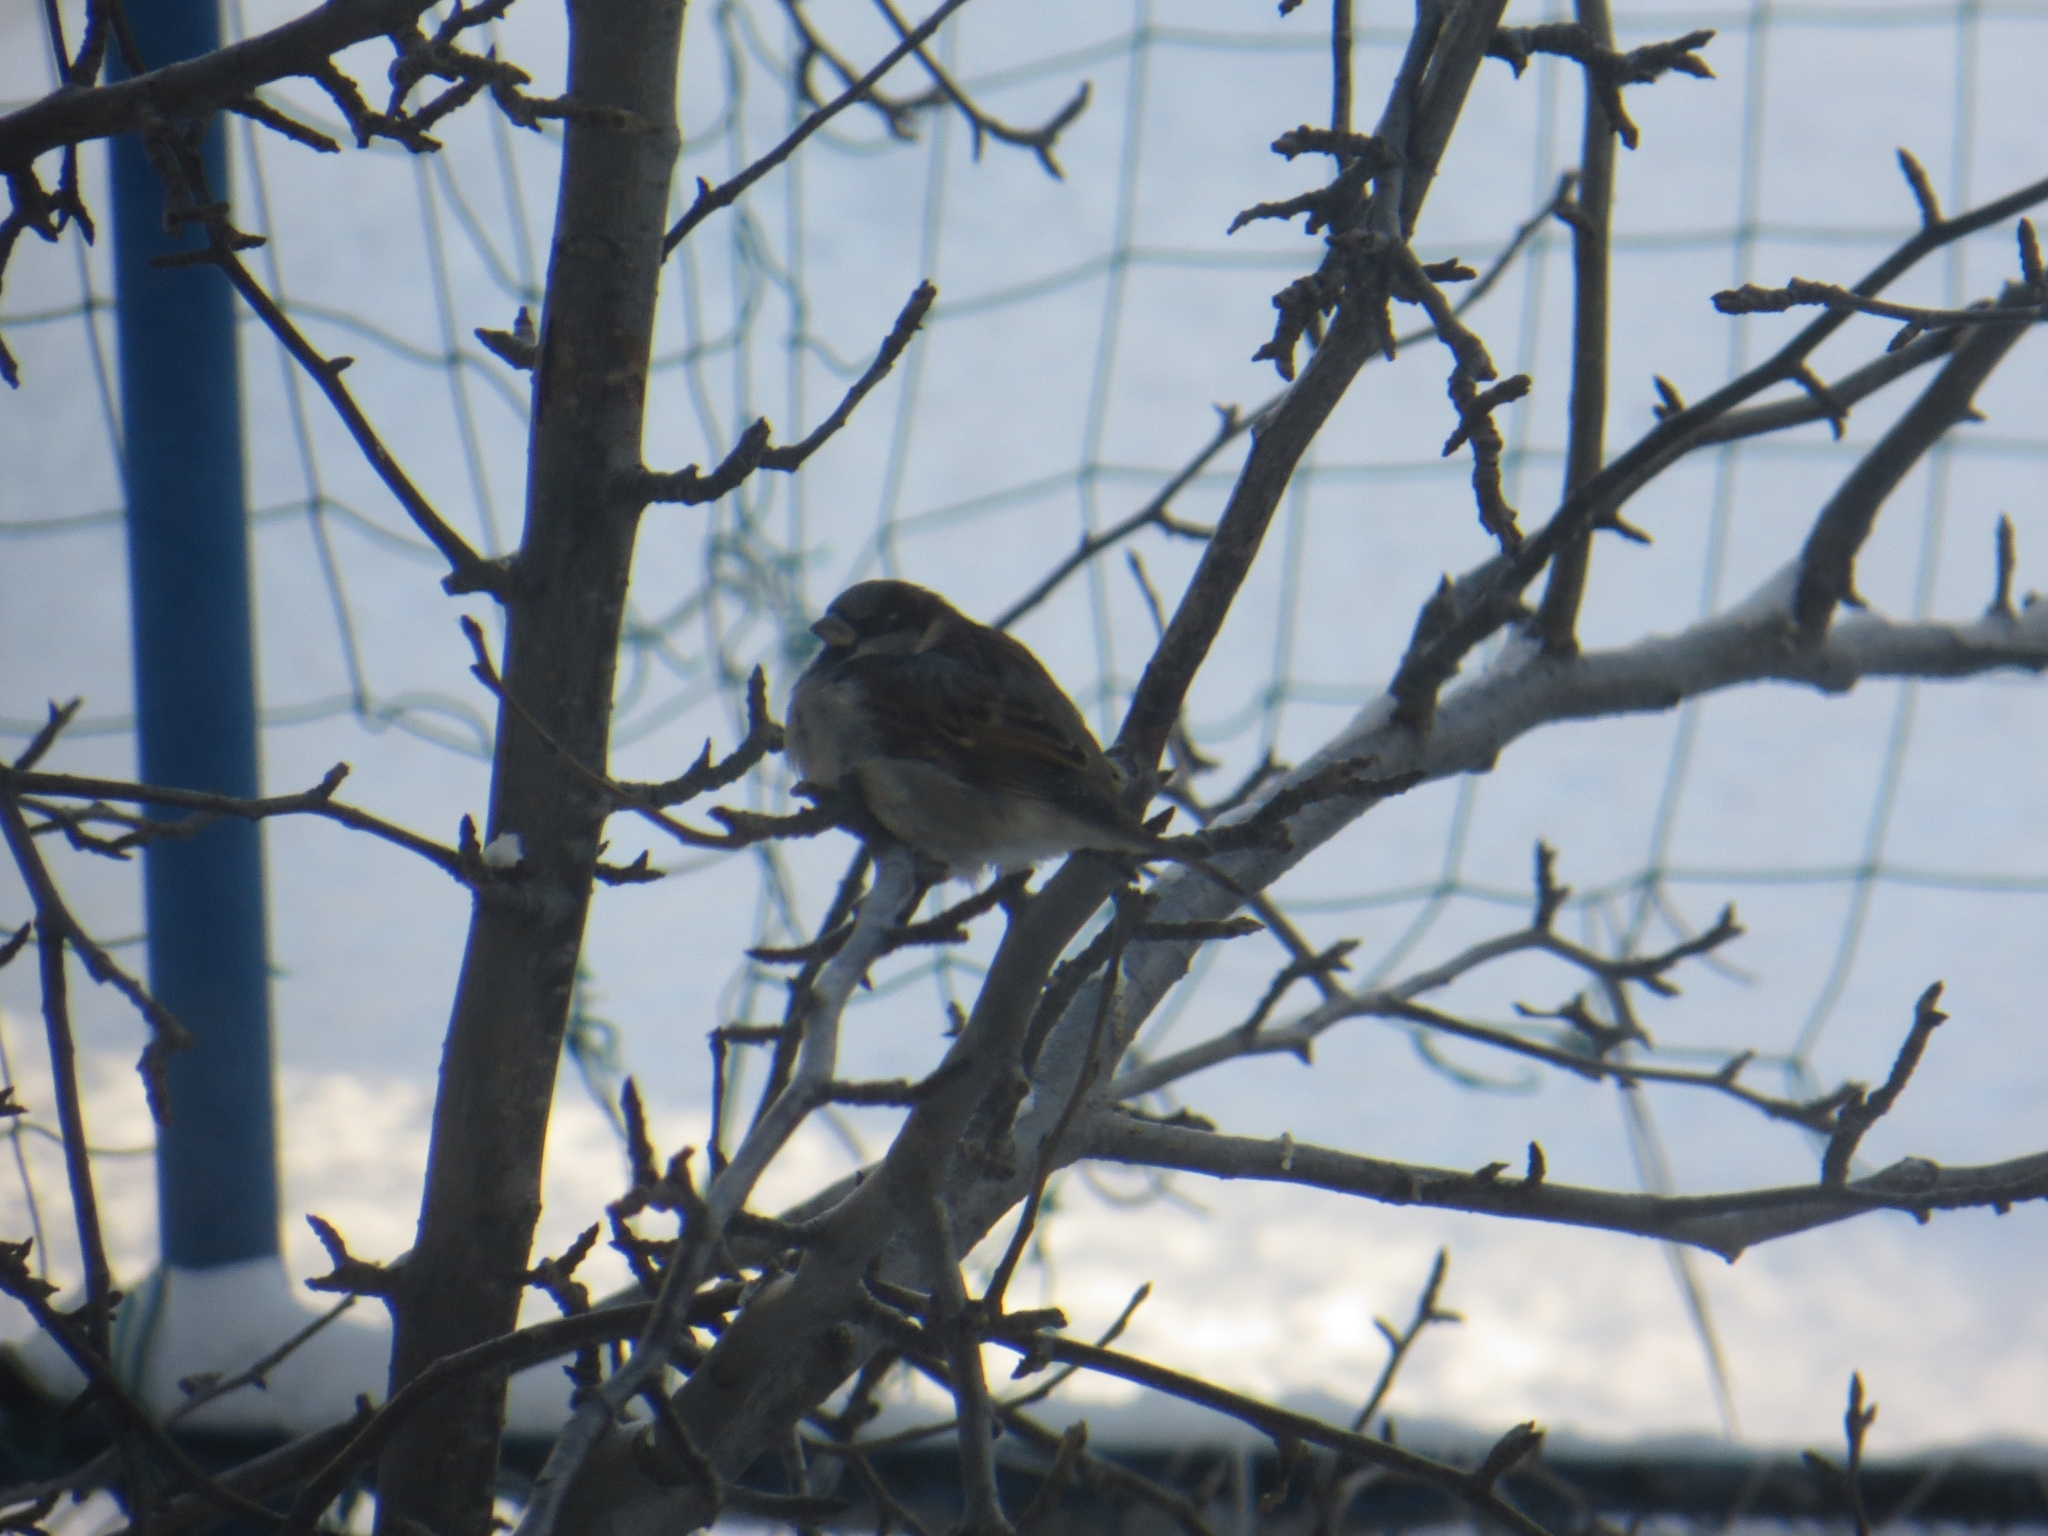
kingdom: Animalia
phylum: Chordata
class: Aves
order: Passeriformes
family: Passeridae
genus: Passer
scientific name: Passer domesticus
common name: House sparrow
